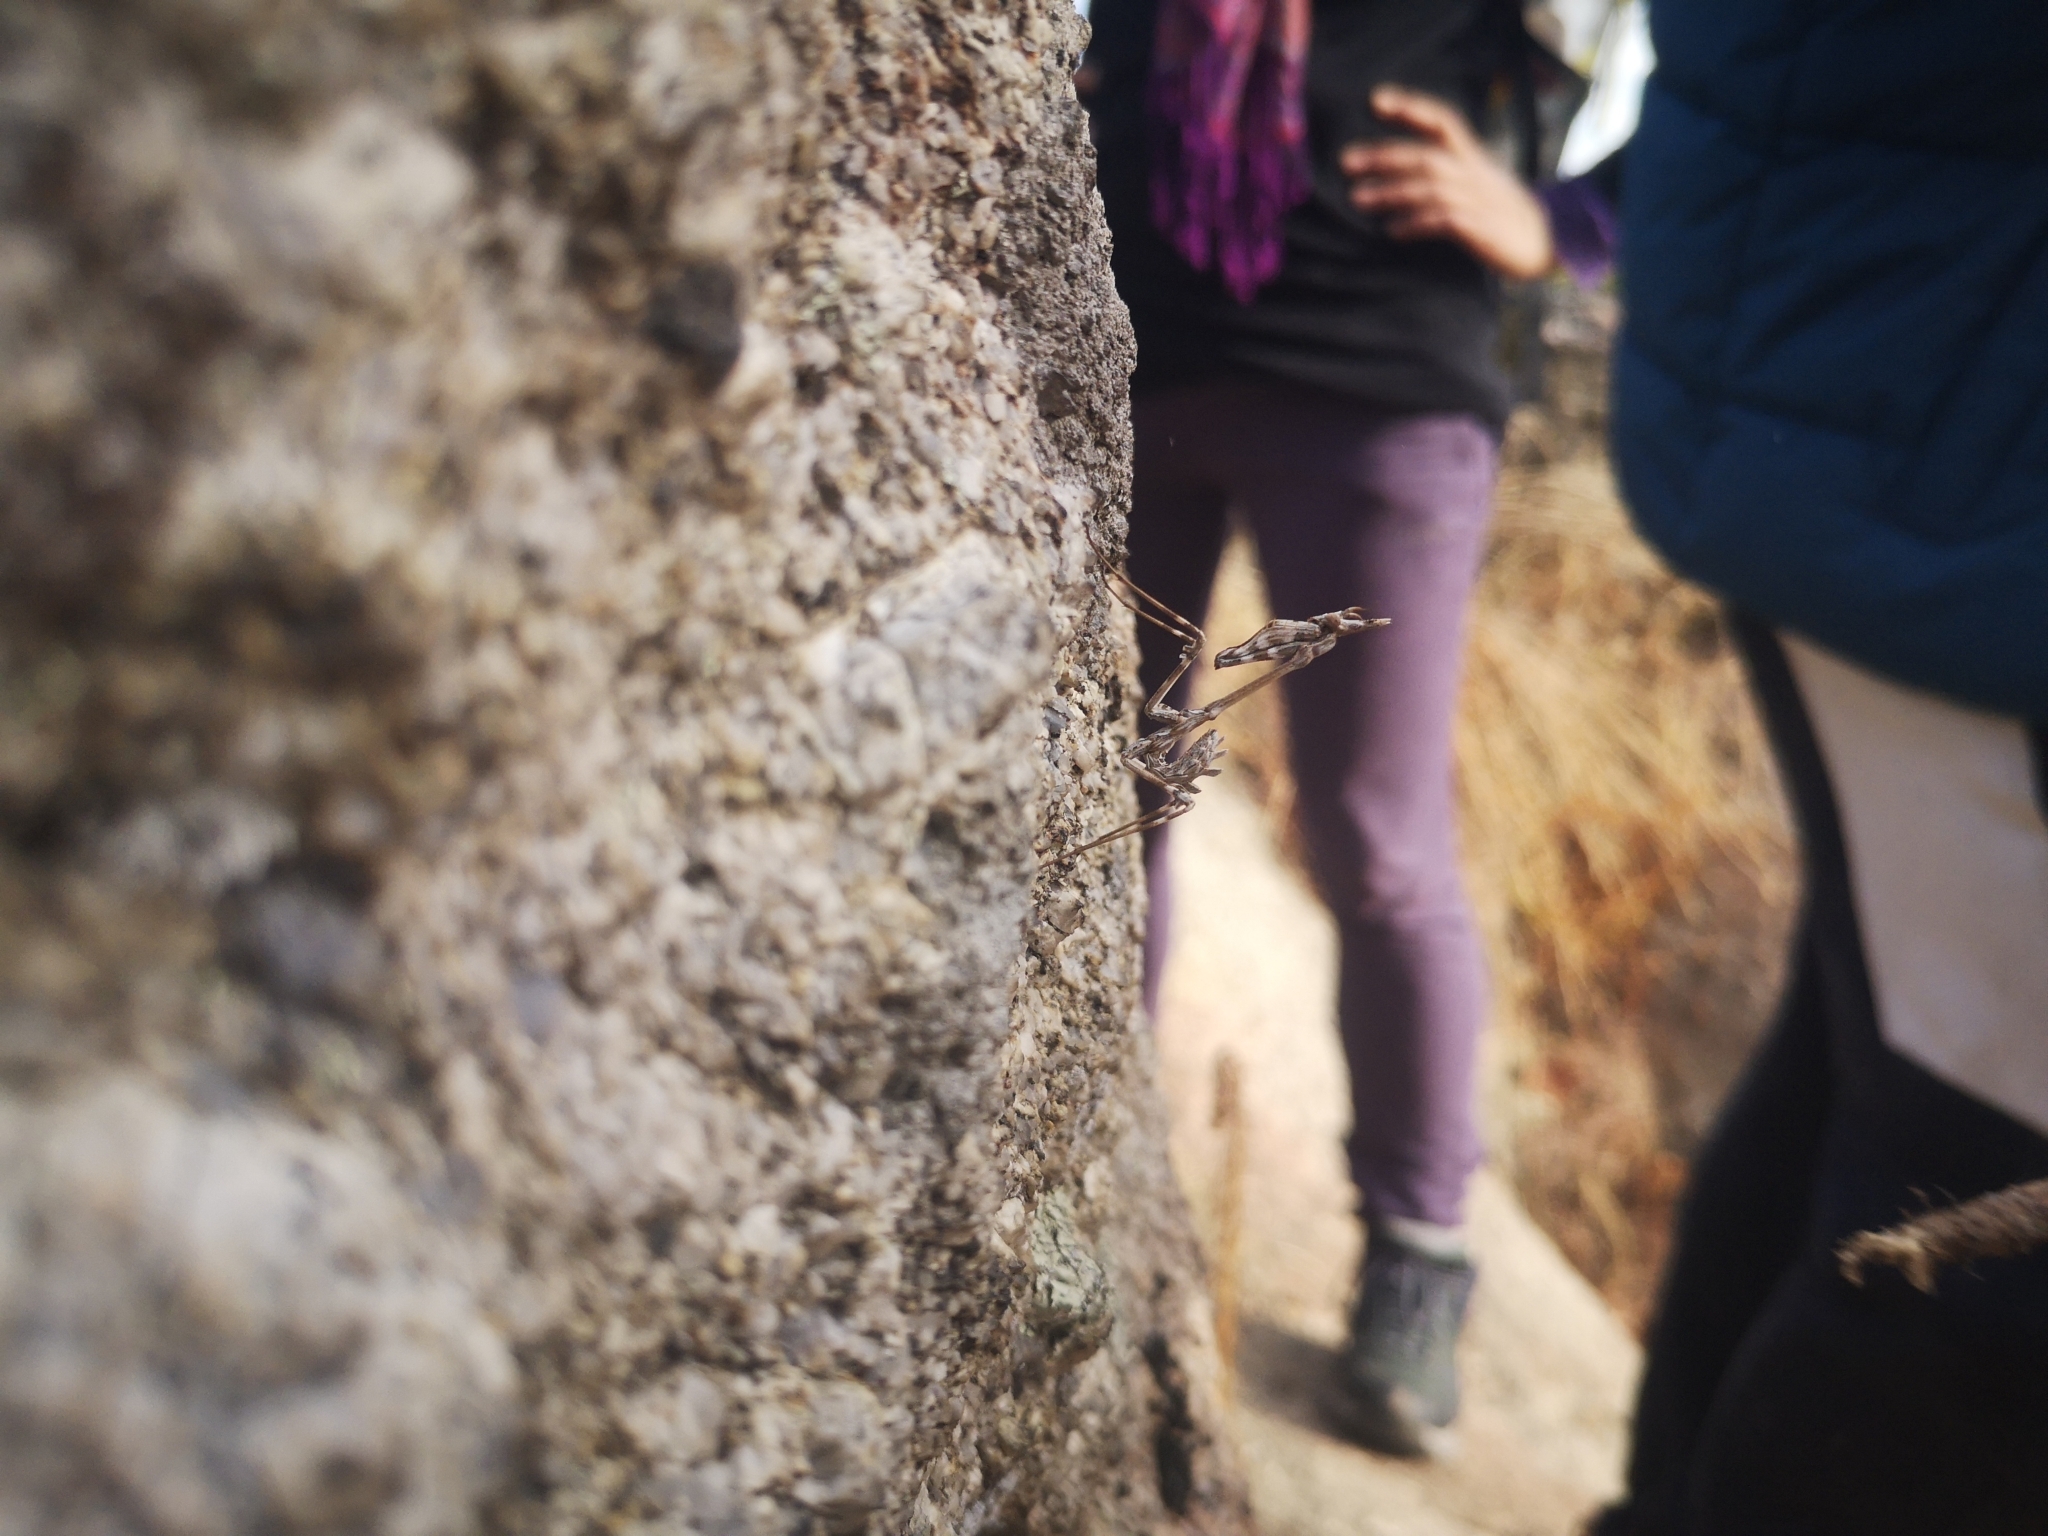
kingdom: Animalia
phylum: Arthropoda
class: Insecta
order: Mantodea
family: Empusidae
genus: Empusa
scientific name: Empusa fasciata
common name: Devil's mare
